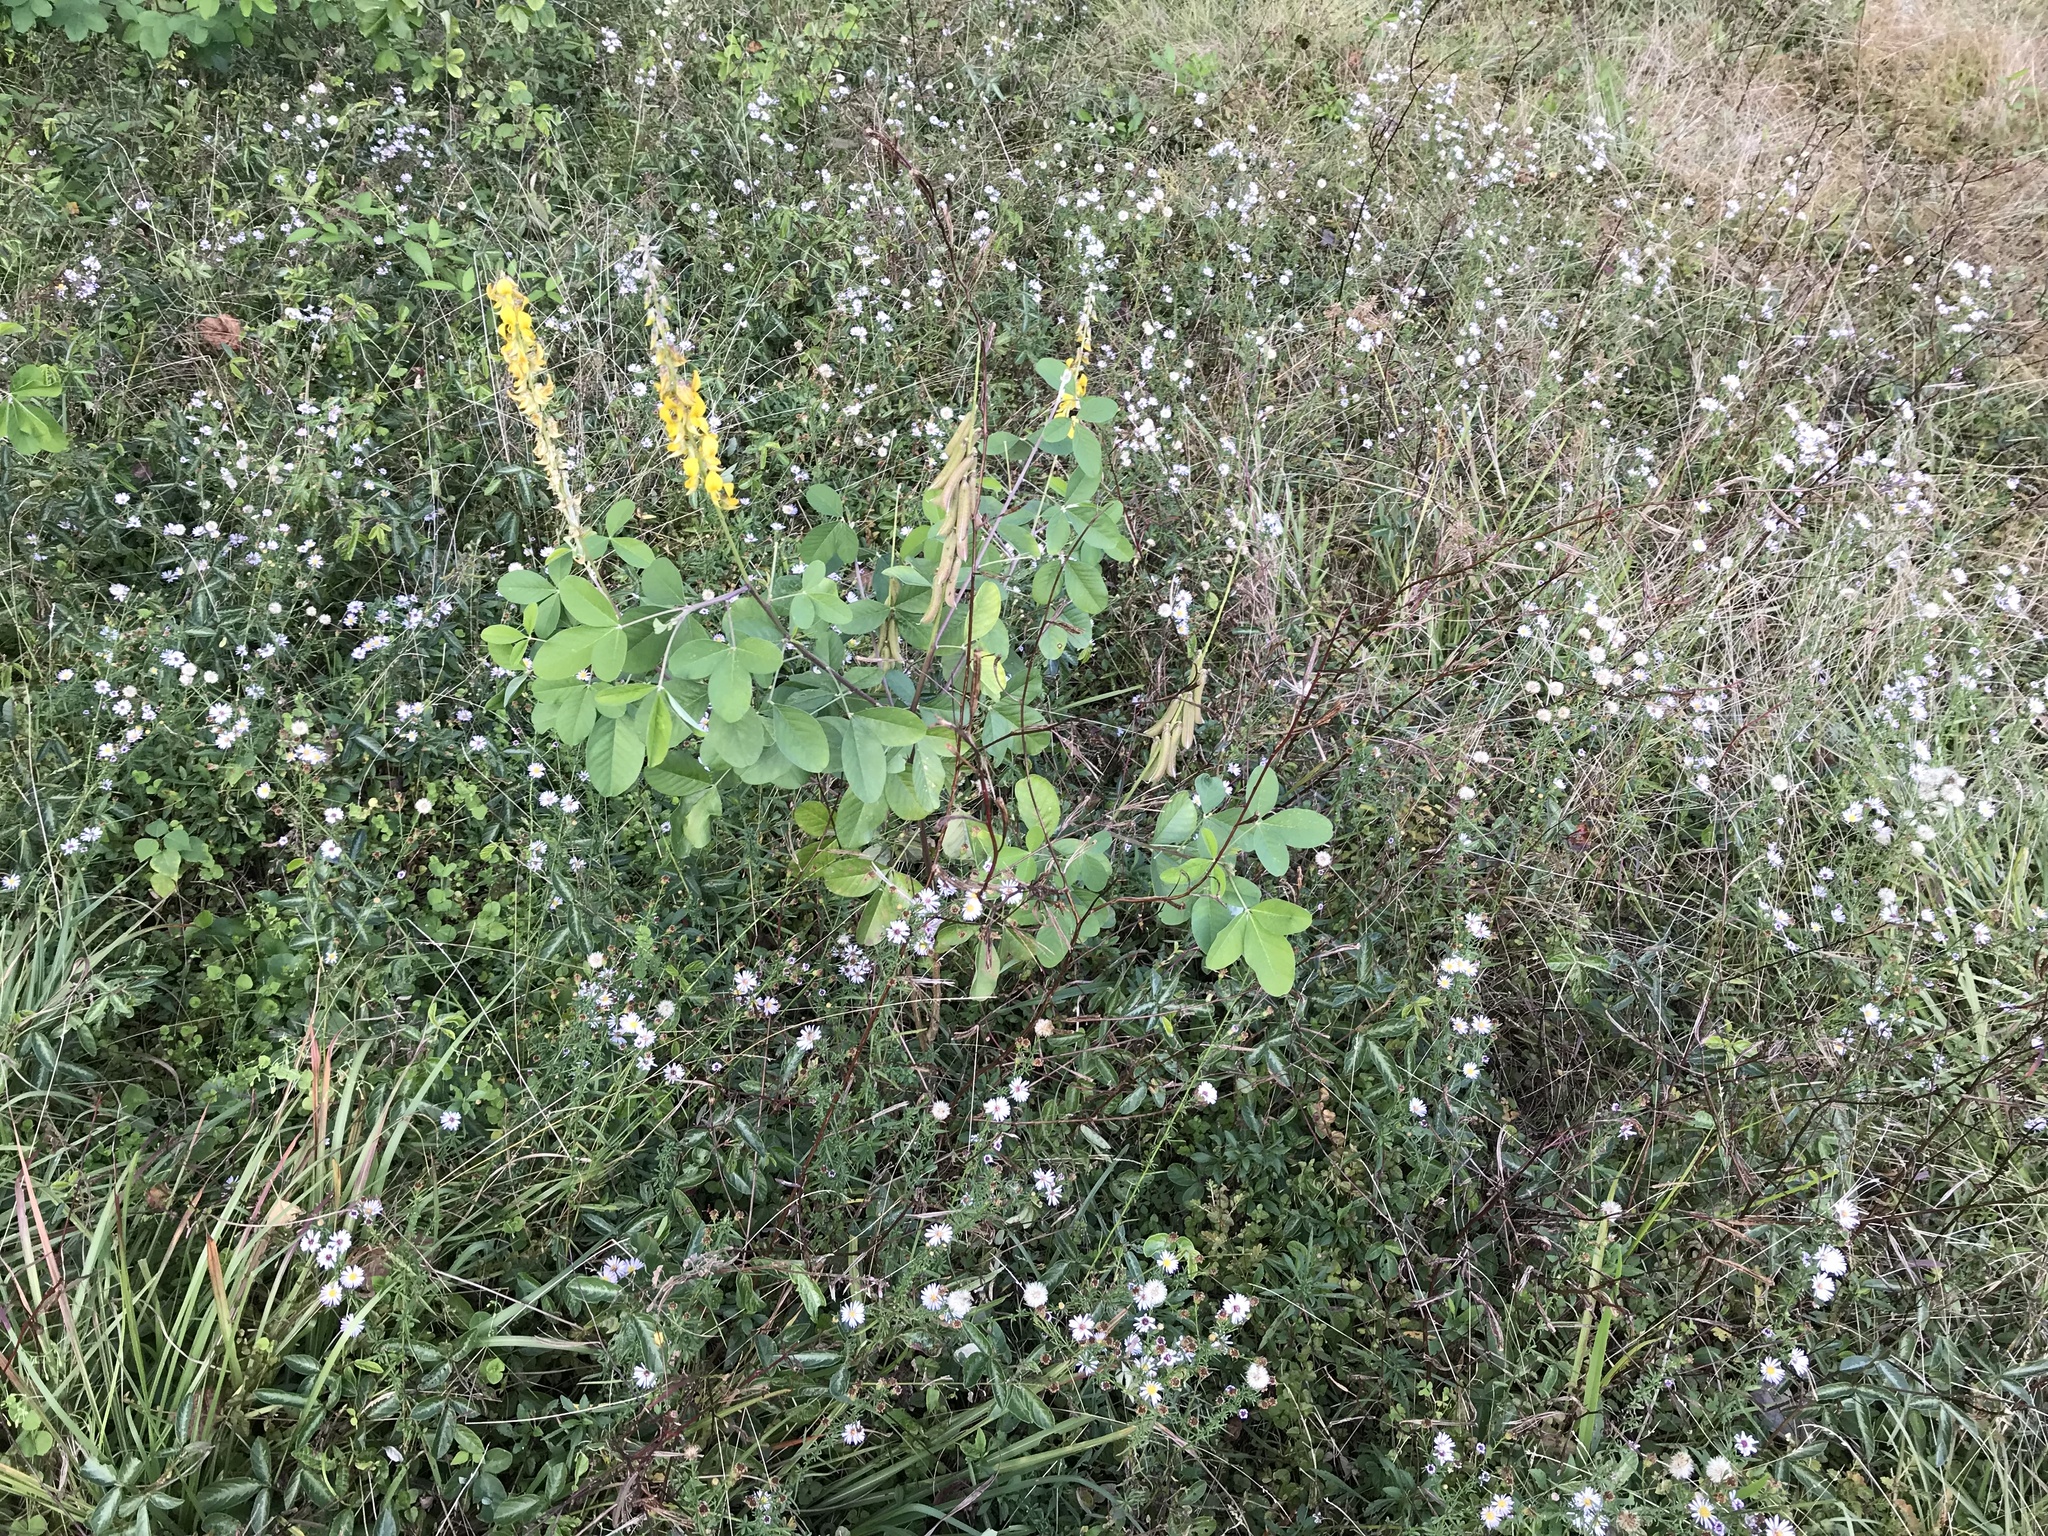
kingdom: Plantae
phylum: Tracheophyta
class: Magnoliopsida
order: Fabales
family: Fabaceae
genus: Crotalaria
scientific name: Crotalaria pallida
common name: Smooth rattlebox
